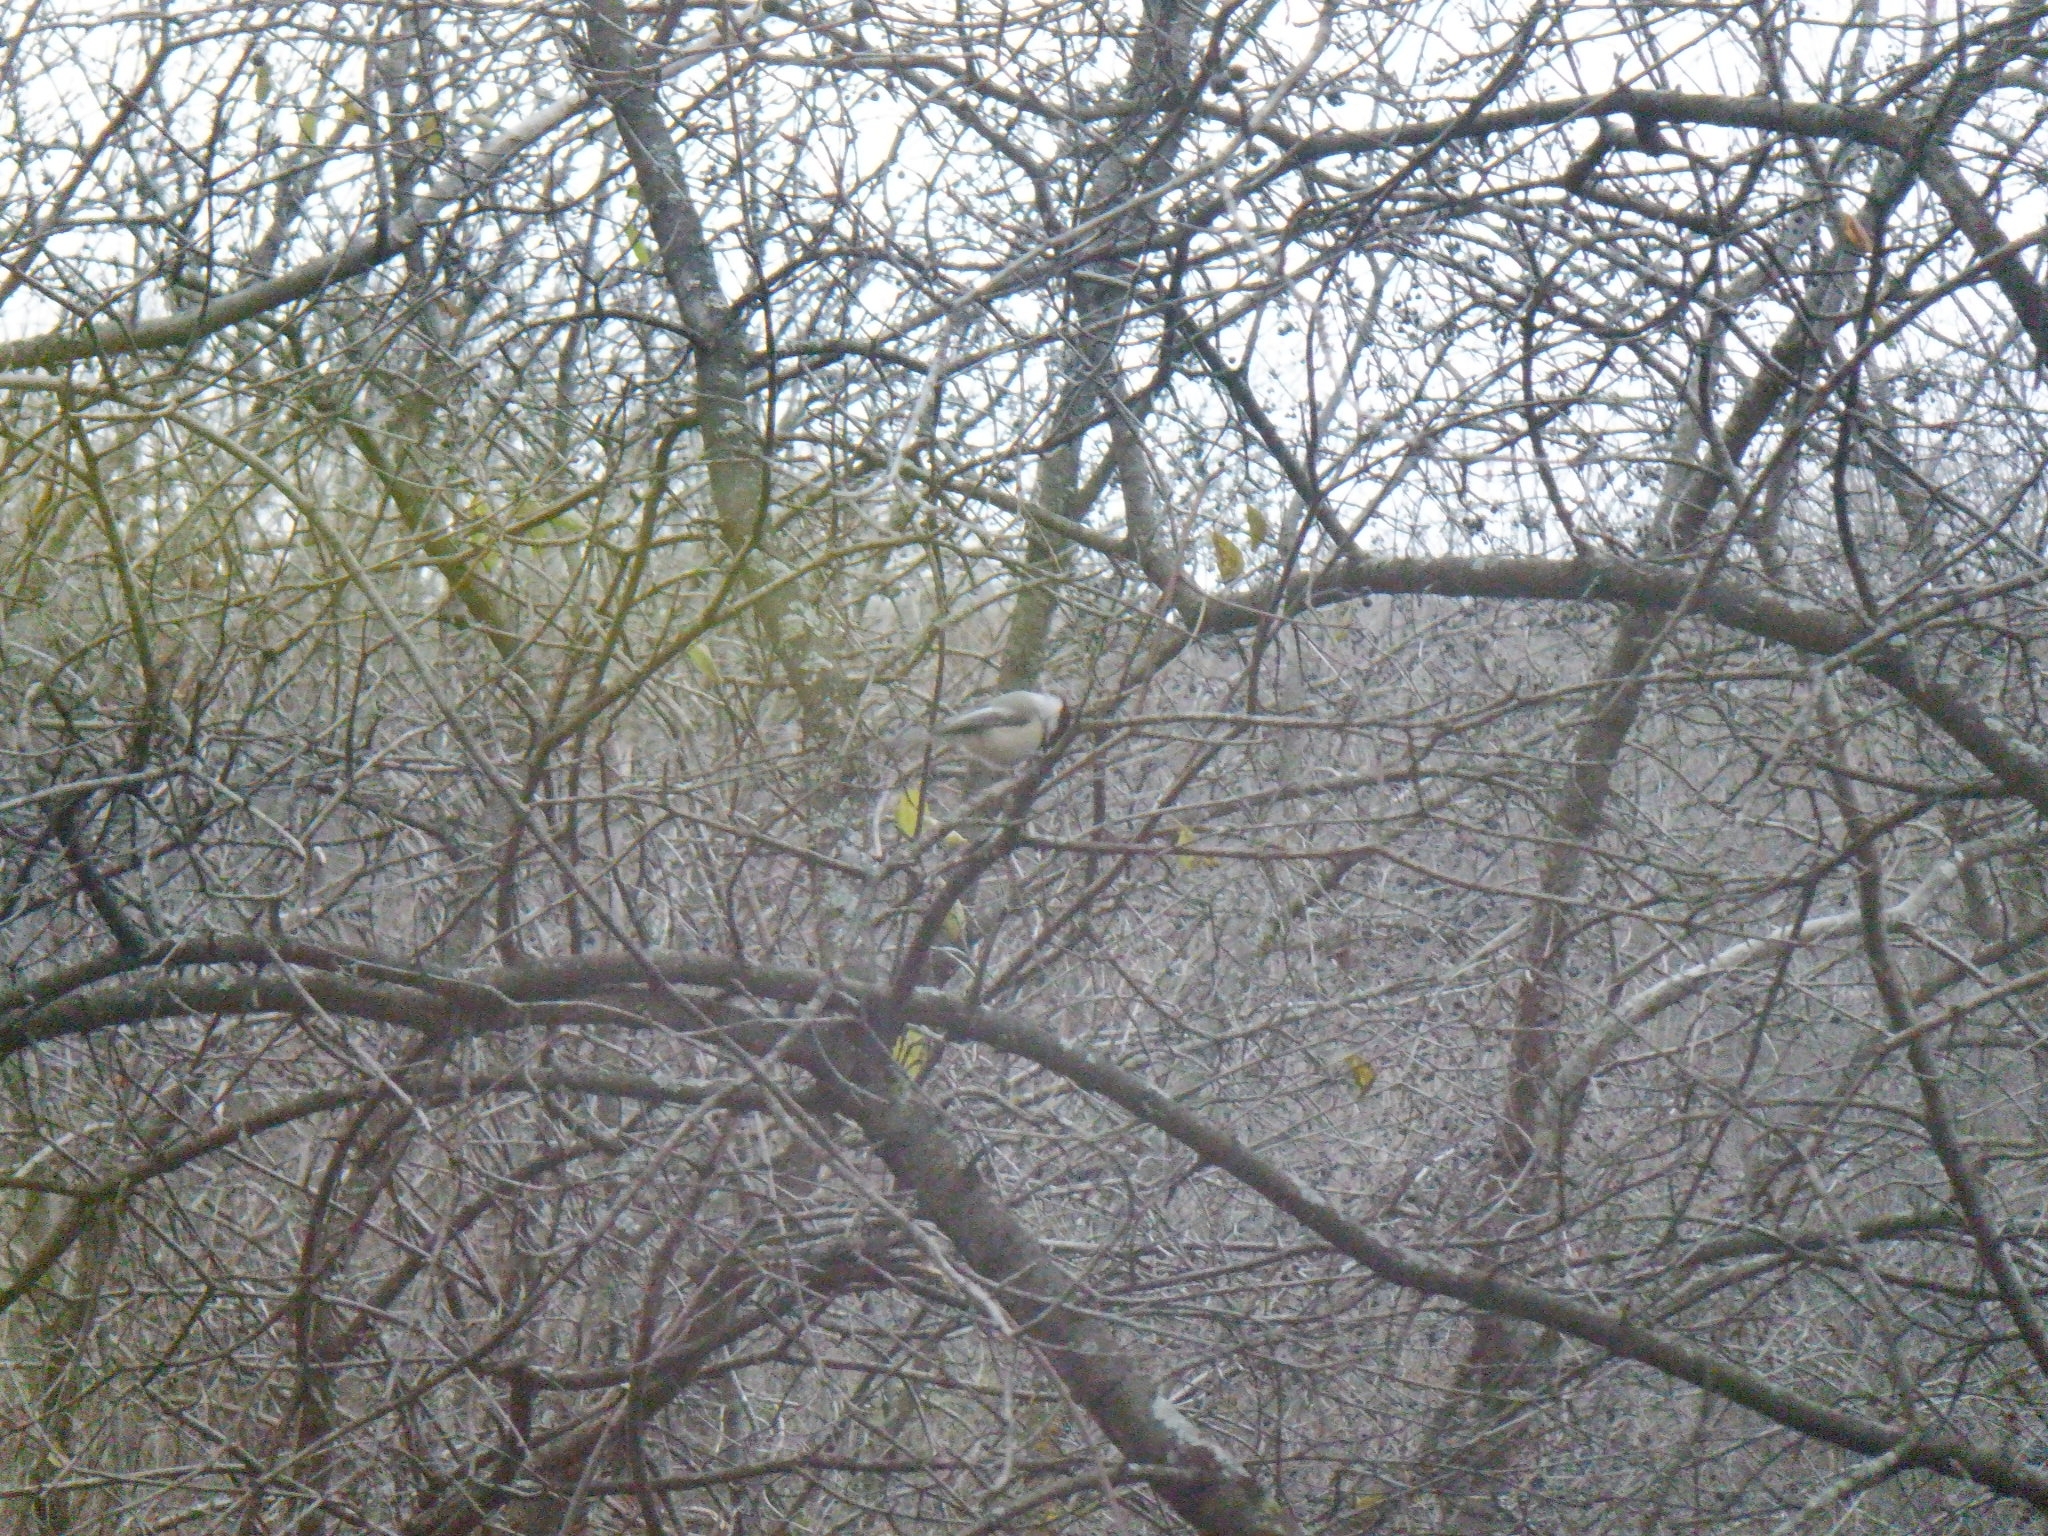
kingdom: Animalia
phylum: Chordata
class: Aves
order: Passeriformes
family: Paridae
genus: Poecile
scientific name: Poecile atricapillus
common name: Black-capped chickadee
